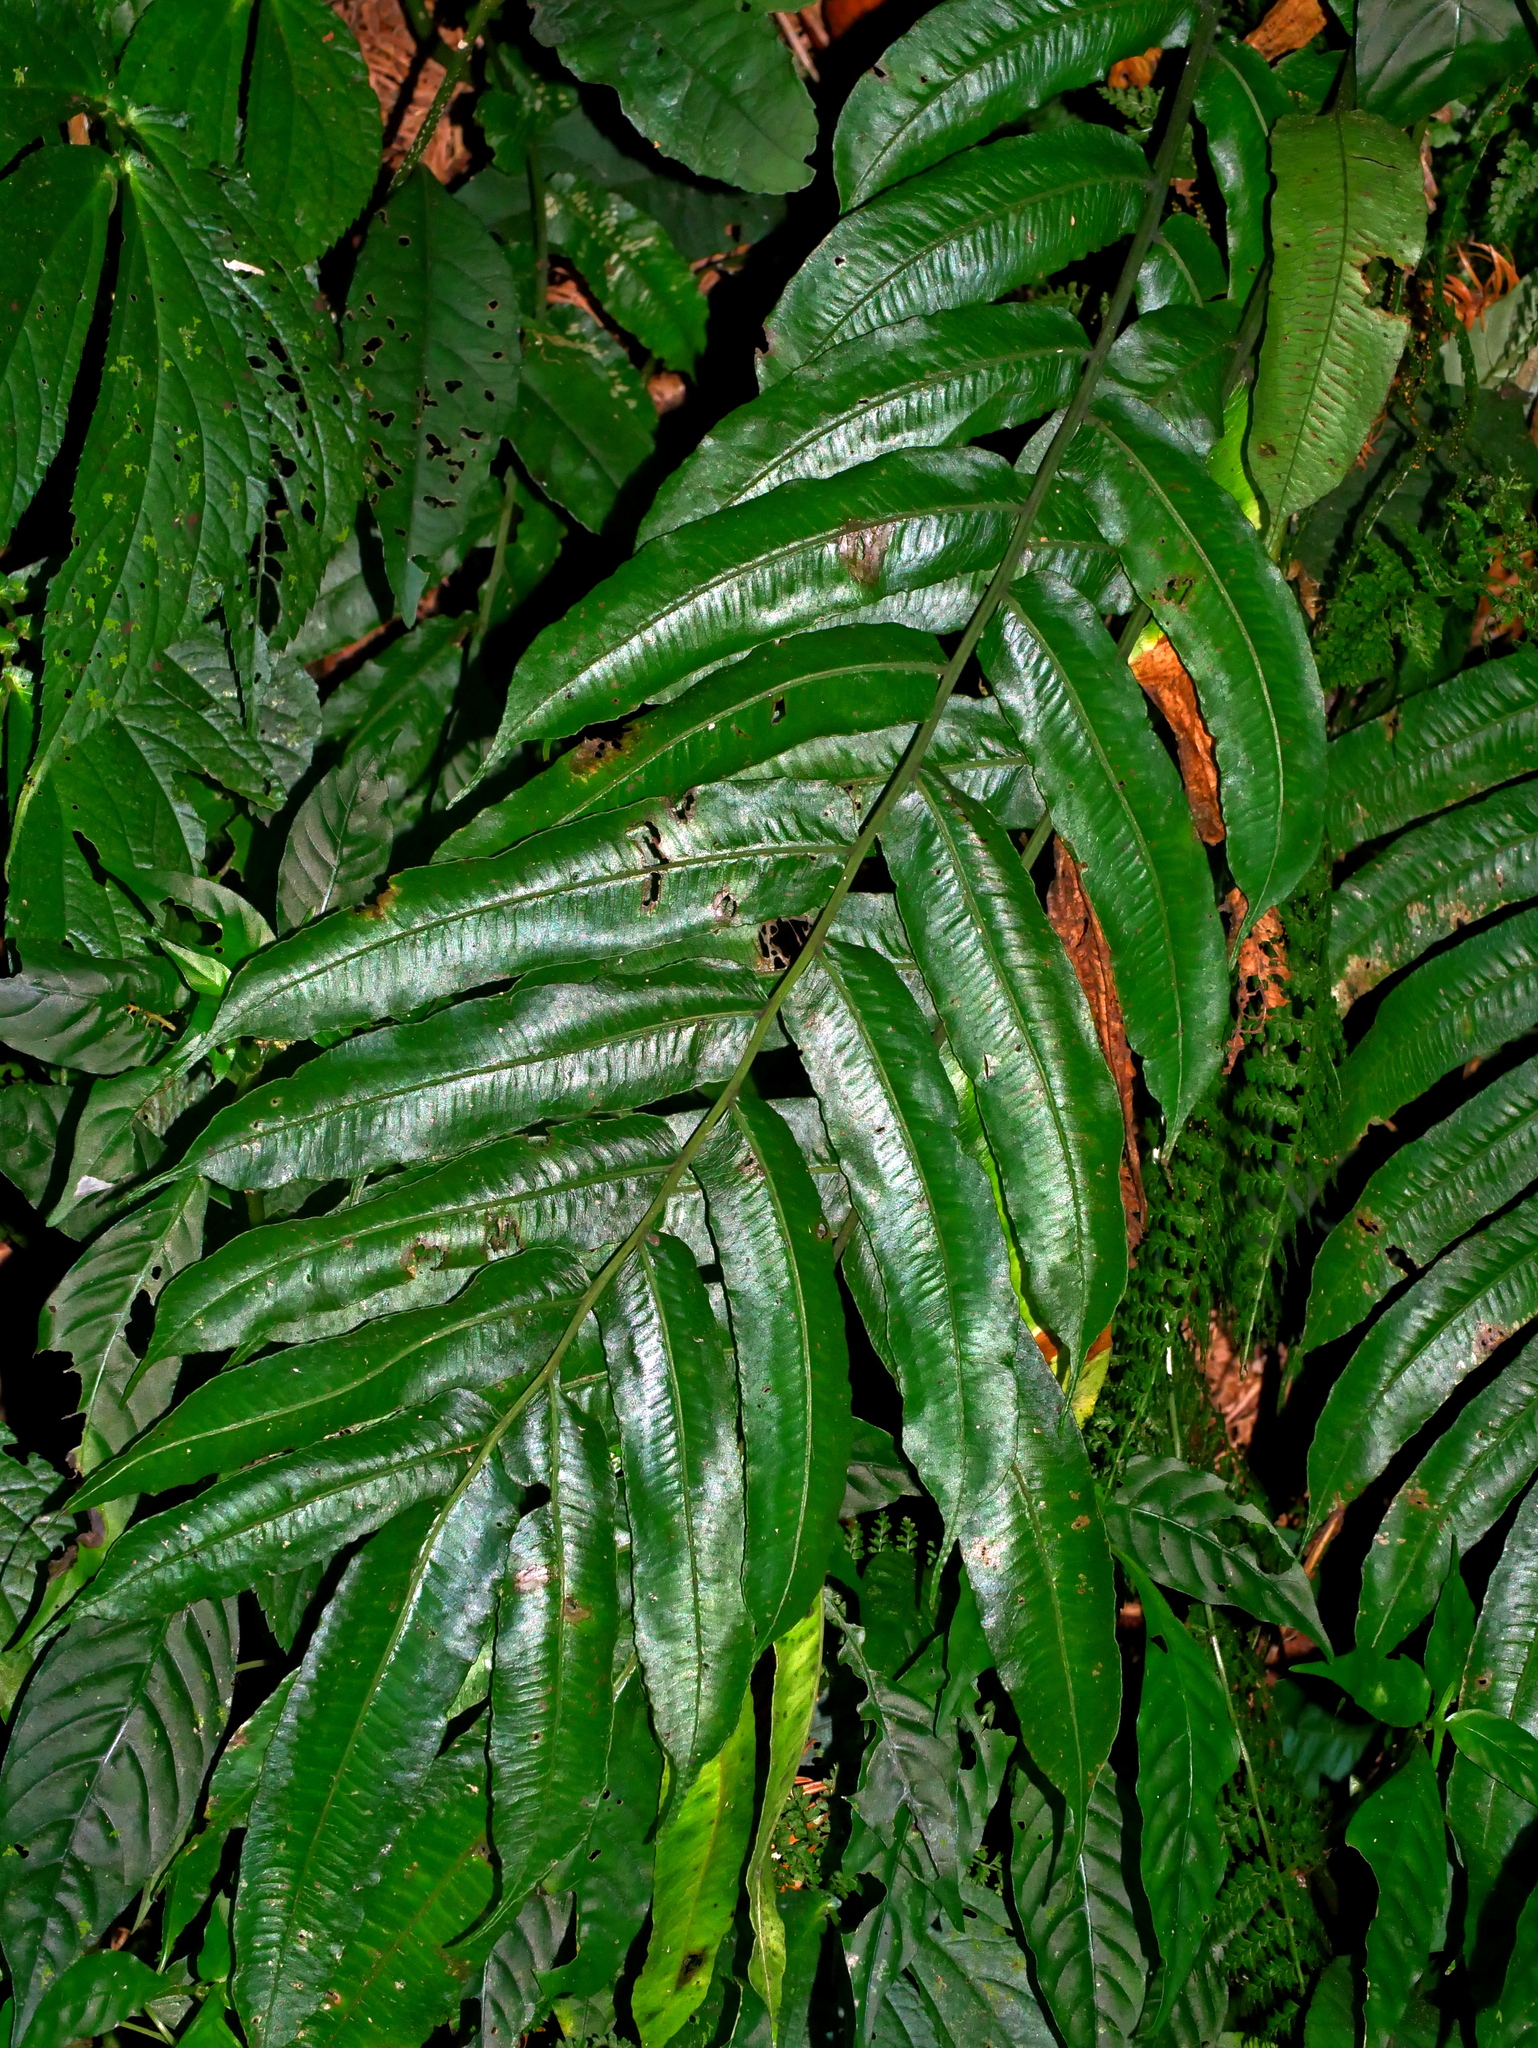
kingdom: Plantae
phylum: Tracheophyta
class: Polypodiopsida
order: Polypodiales
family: Diplaziopsidaceae
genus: Diplaziopsis
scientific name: Diplaziopsis javanica
